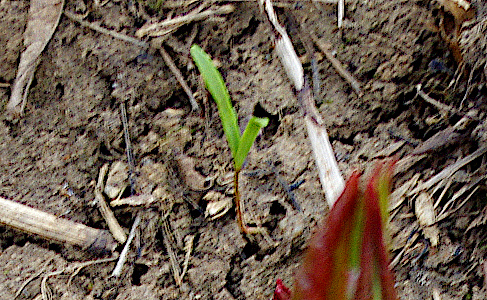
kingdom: Plantae
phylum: Tracheophyta
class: Magnoliopsida
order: Sapindales
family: Sapindaceae
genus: Acer
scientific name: Acer negundo
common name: Ashleaf maple
